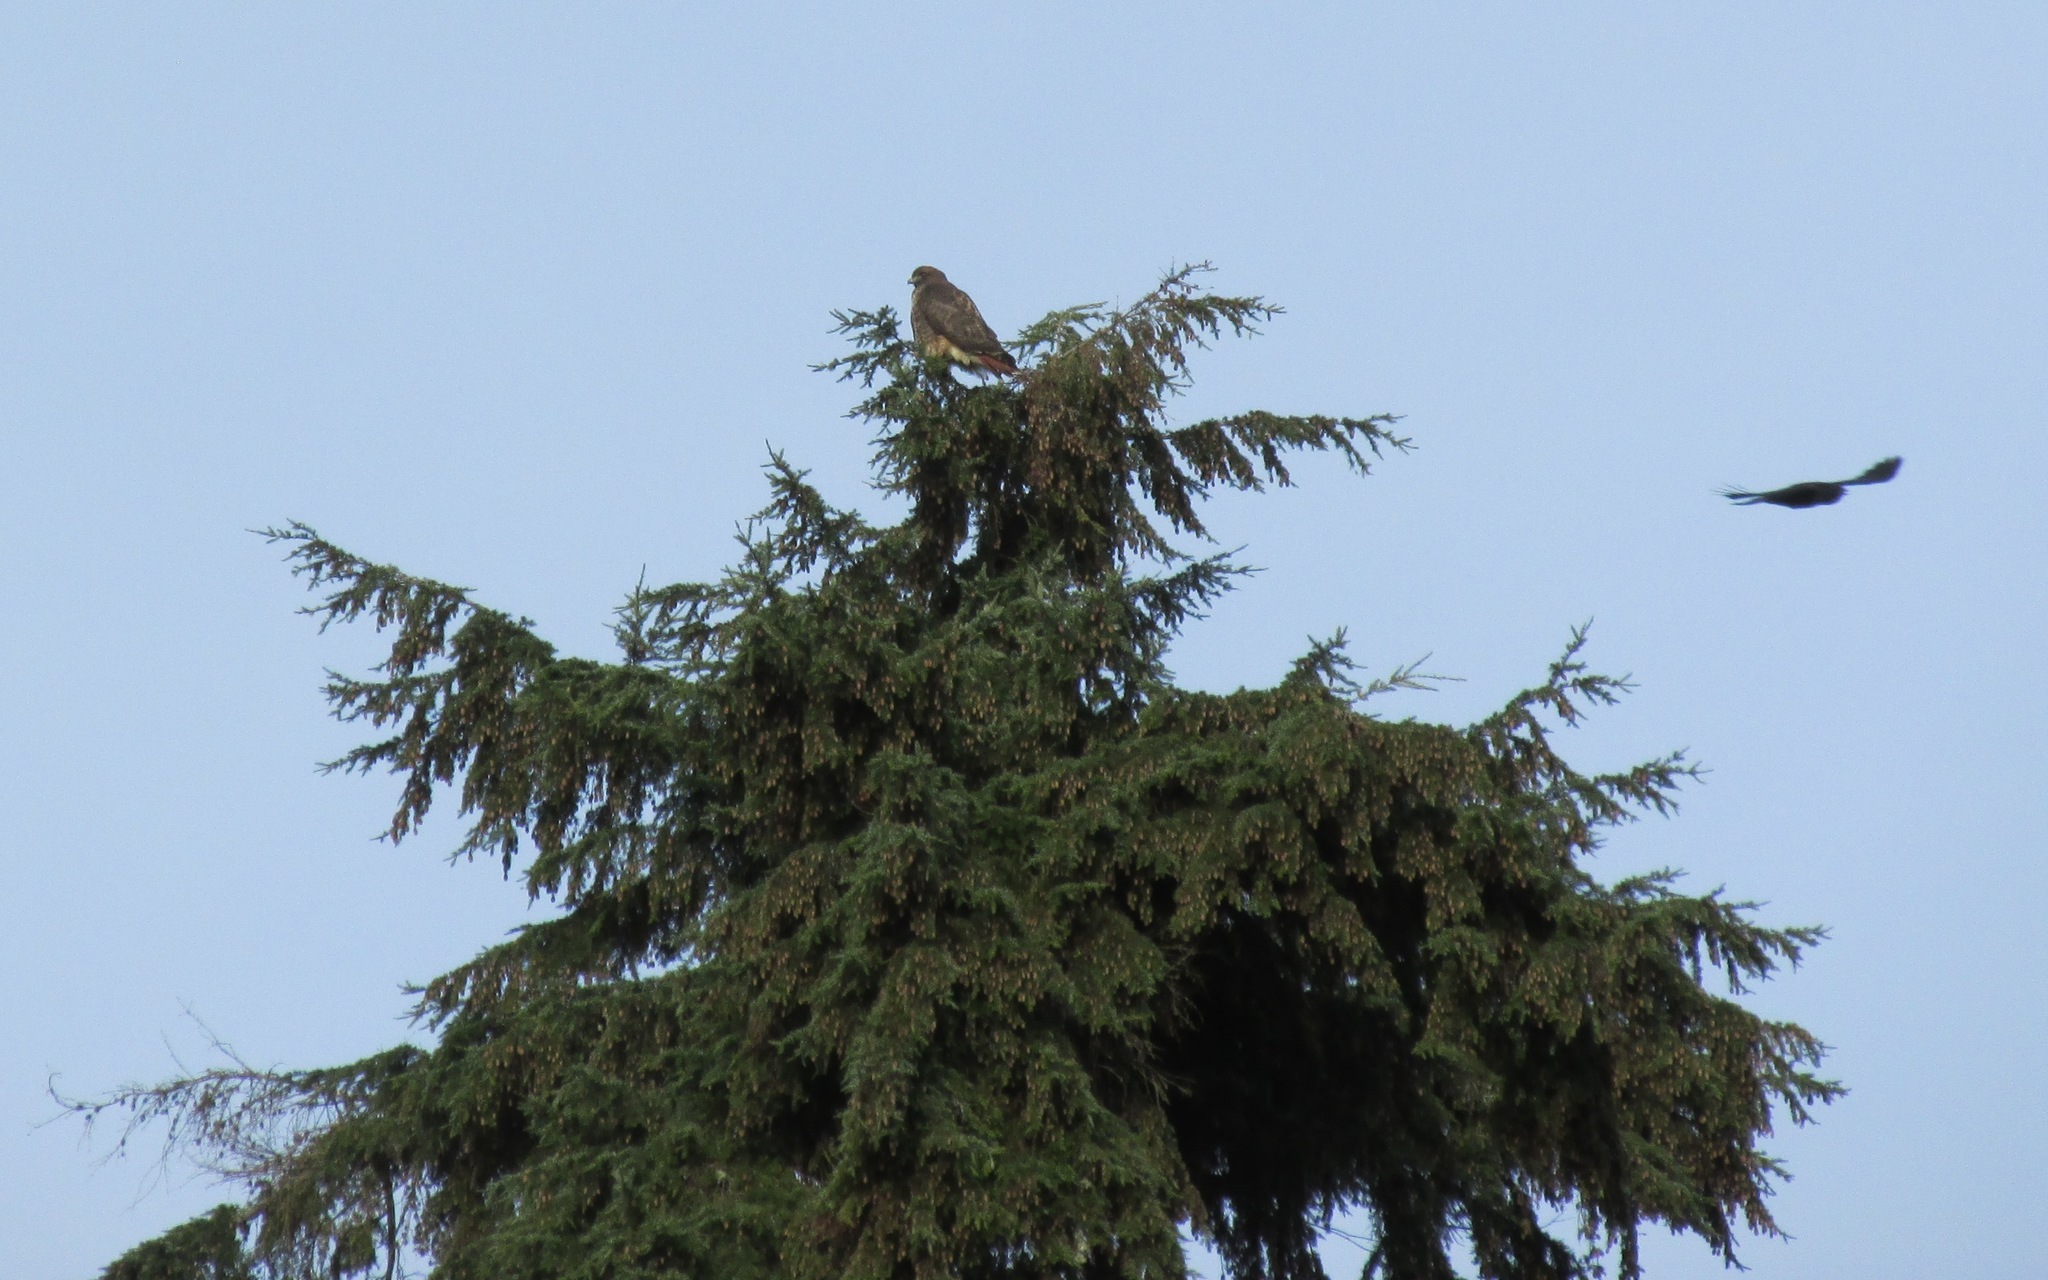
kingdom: Animalia
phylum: Chordata
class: Aves
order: Accipitriformes
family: Accipitridae
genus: Buteo
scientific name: Buteo jamaicensis
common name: Red-tailed hawk
